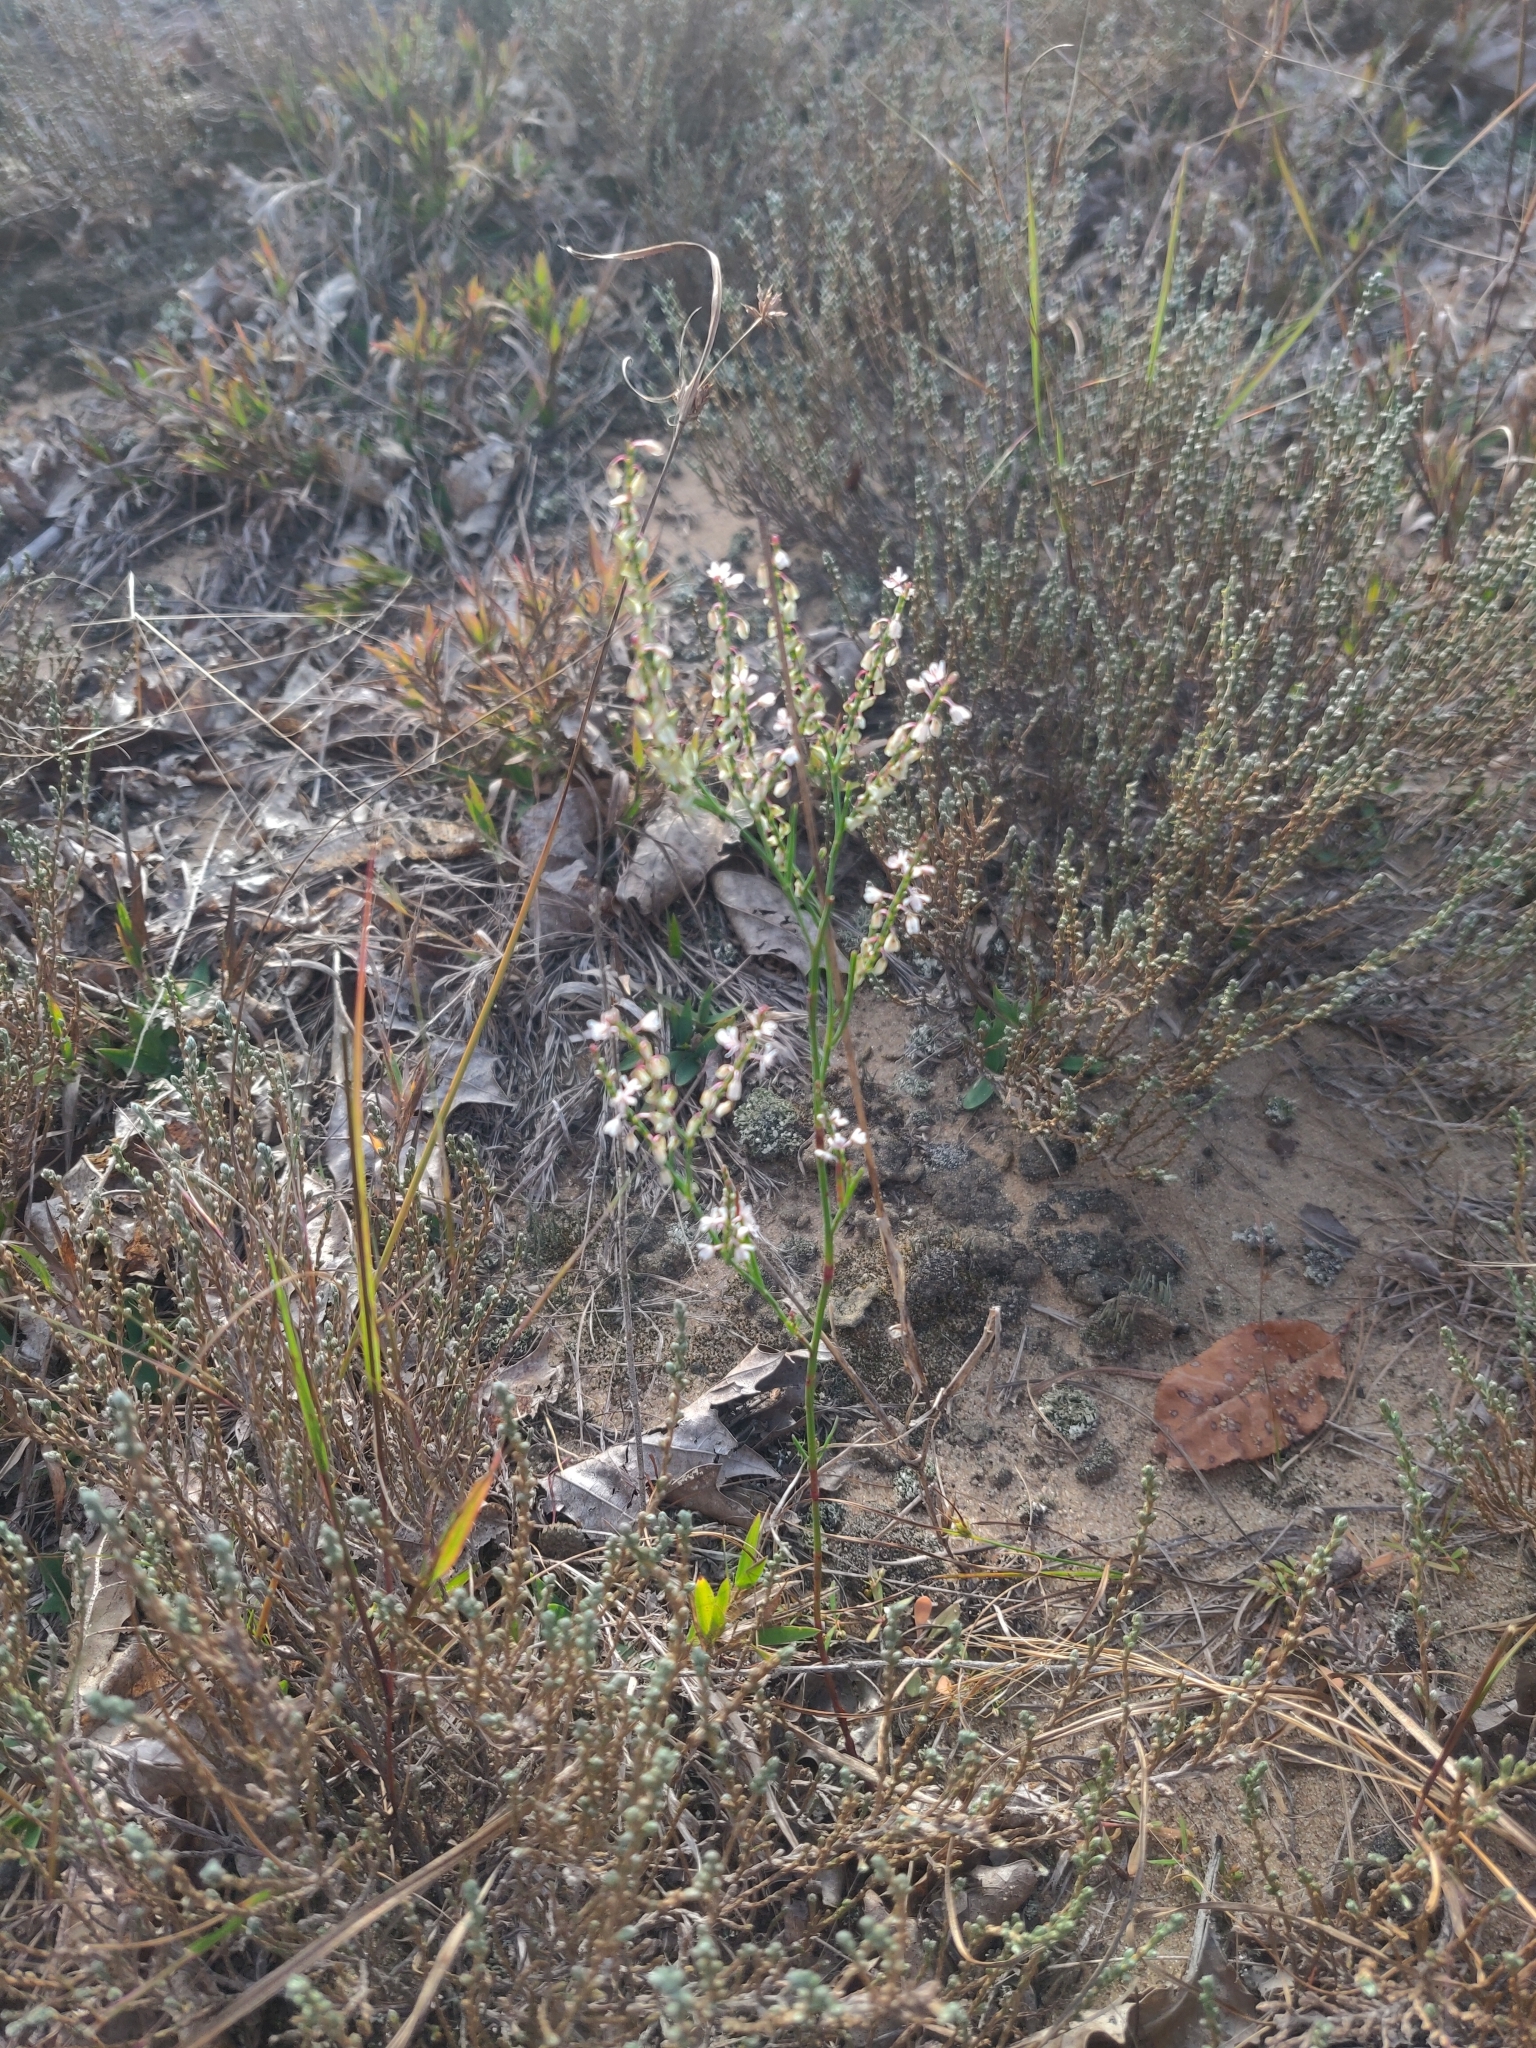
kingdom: Plantae
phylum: Tracheophyta
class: Magnoliopsida
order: Caryophyllales
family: Polygonaceae
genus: Polygonella
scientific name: Polygonella articulata
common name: Coastal jointweed
